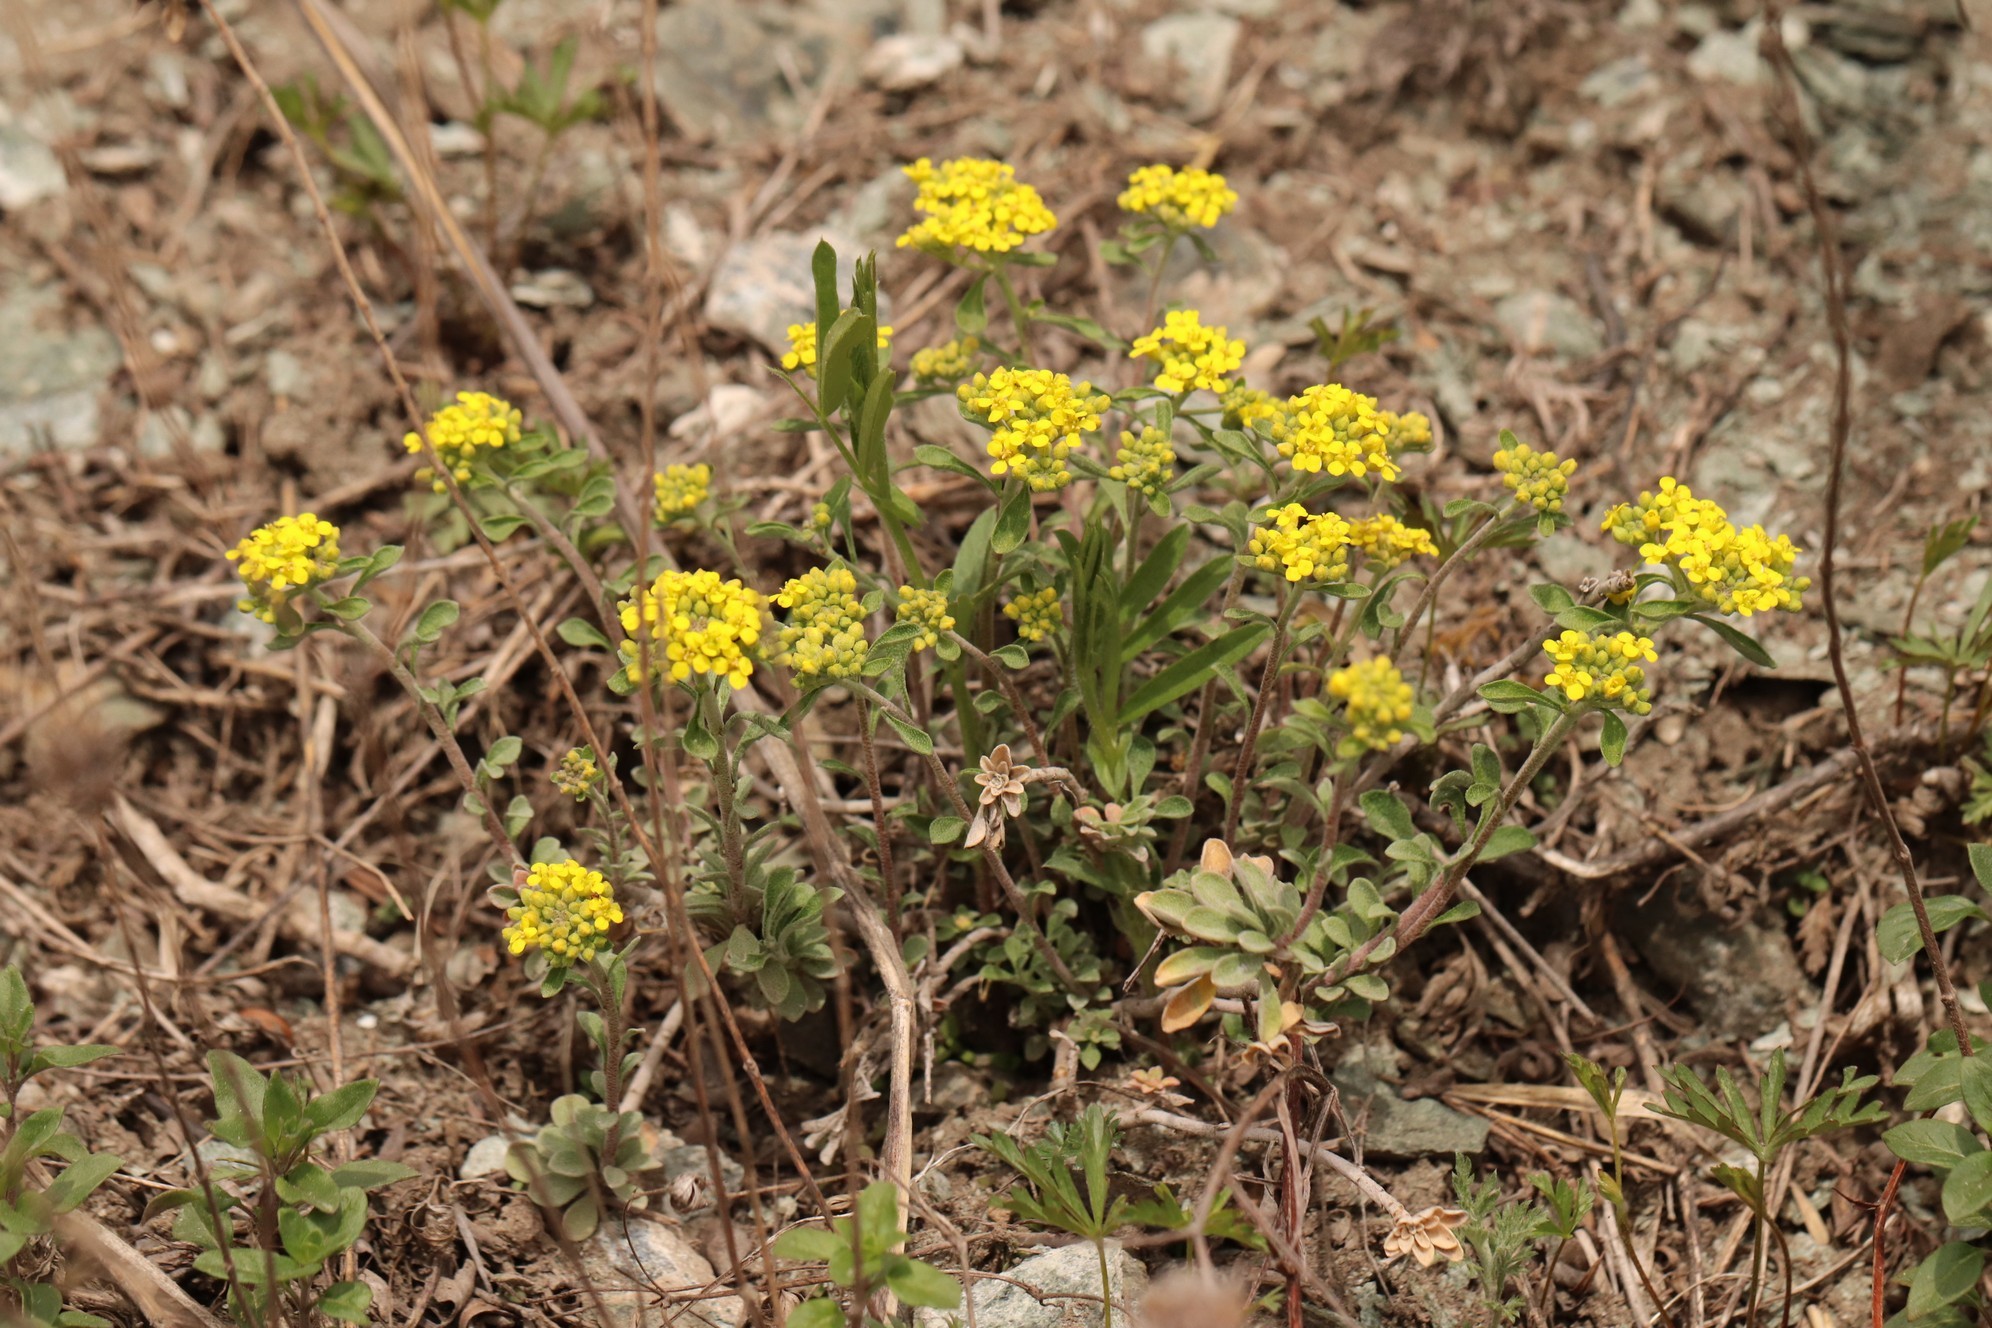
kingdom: Plantae
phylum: Tracheophyta
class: Magnoliopsida
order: Brassicales
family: Brassicaceae
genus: Odontarrhena
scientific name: Odontarrhena obovata
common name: American alyssum
